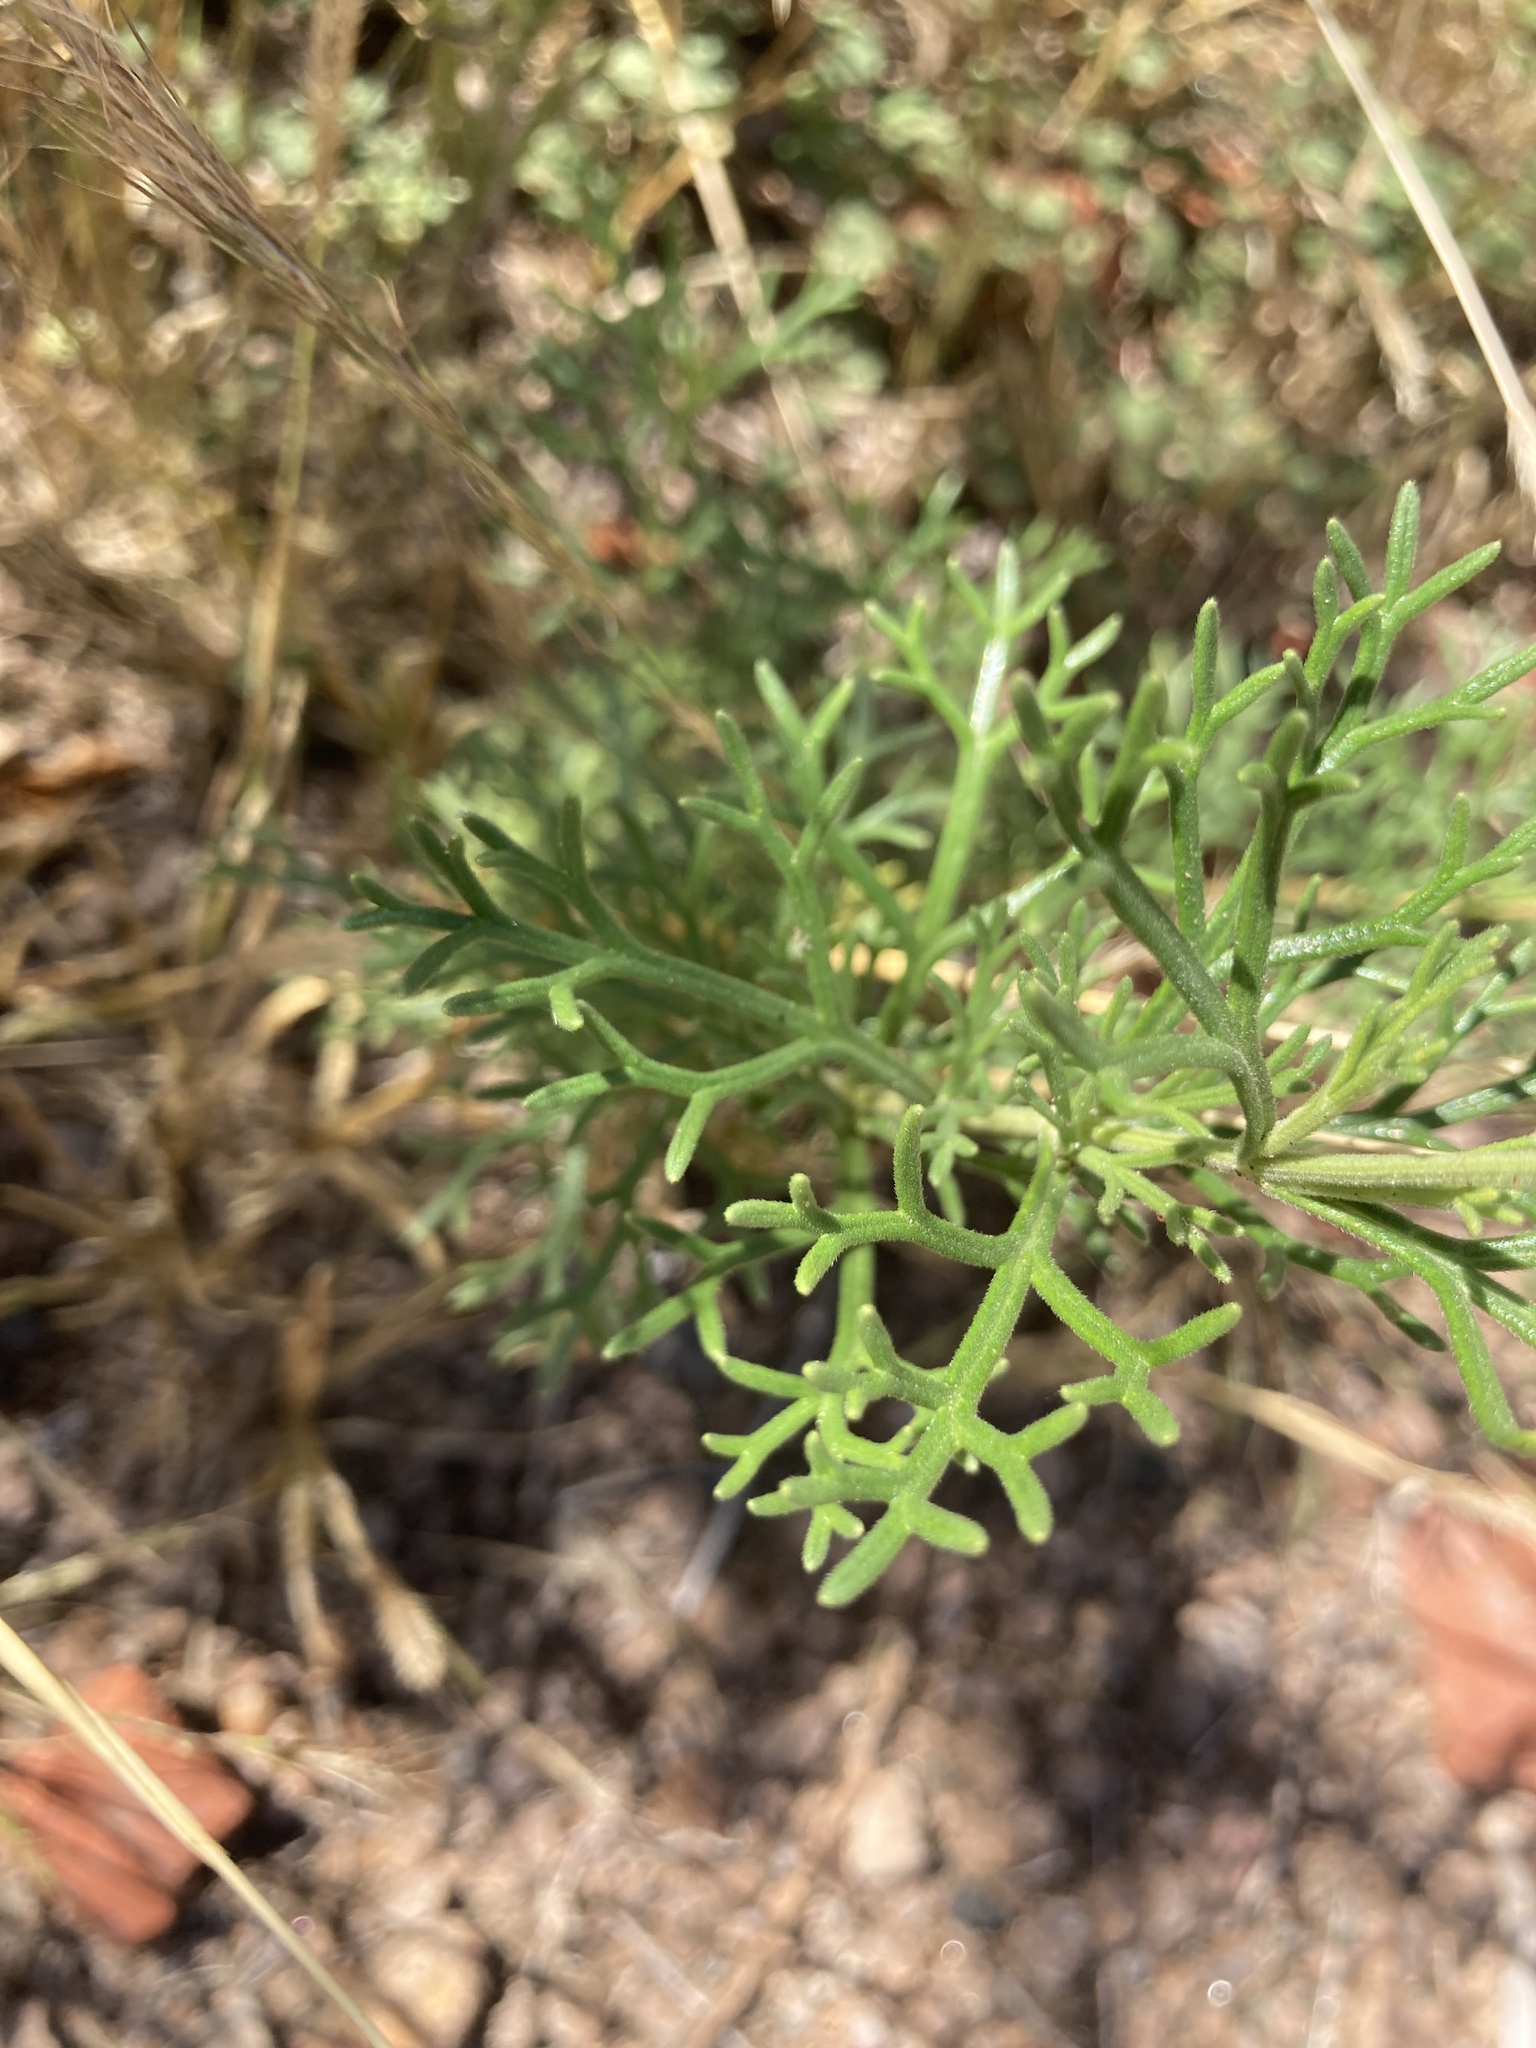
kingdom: Plantae
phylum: Tracheophyta
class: Magnoliopsida
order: Lamiales
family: Verbenaceae
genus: Junellia
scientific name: Junellia hookeriana
